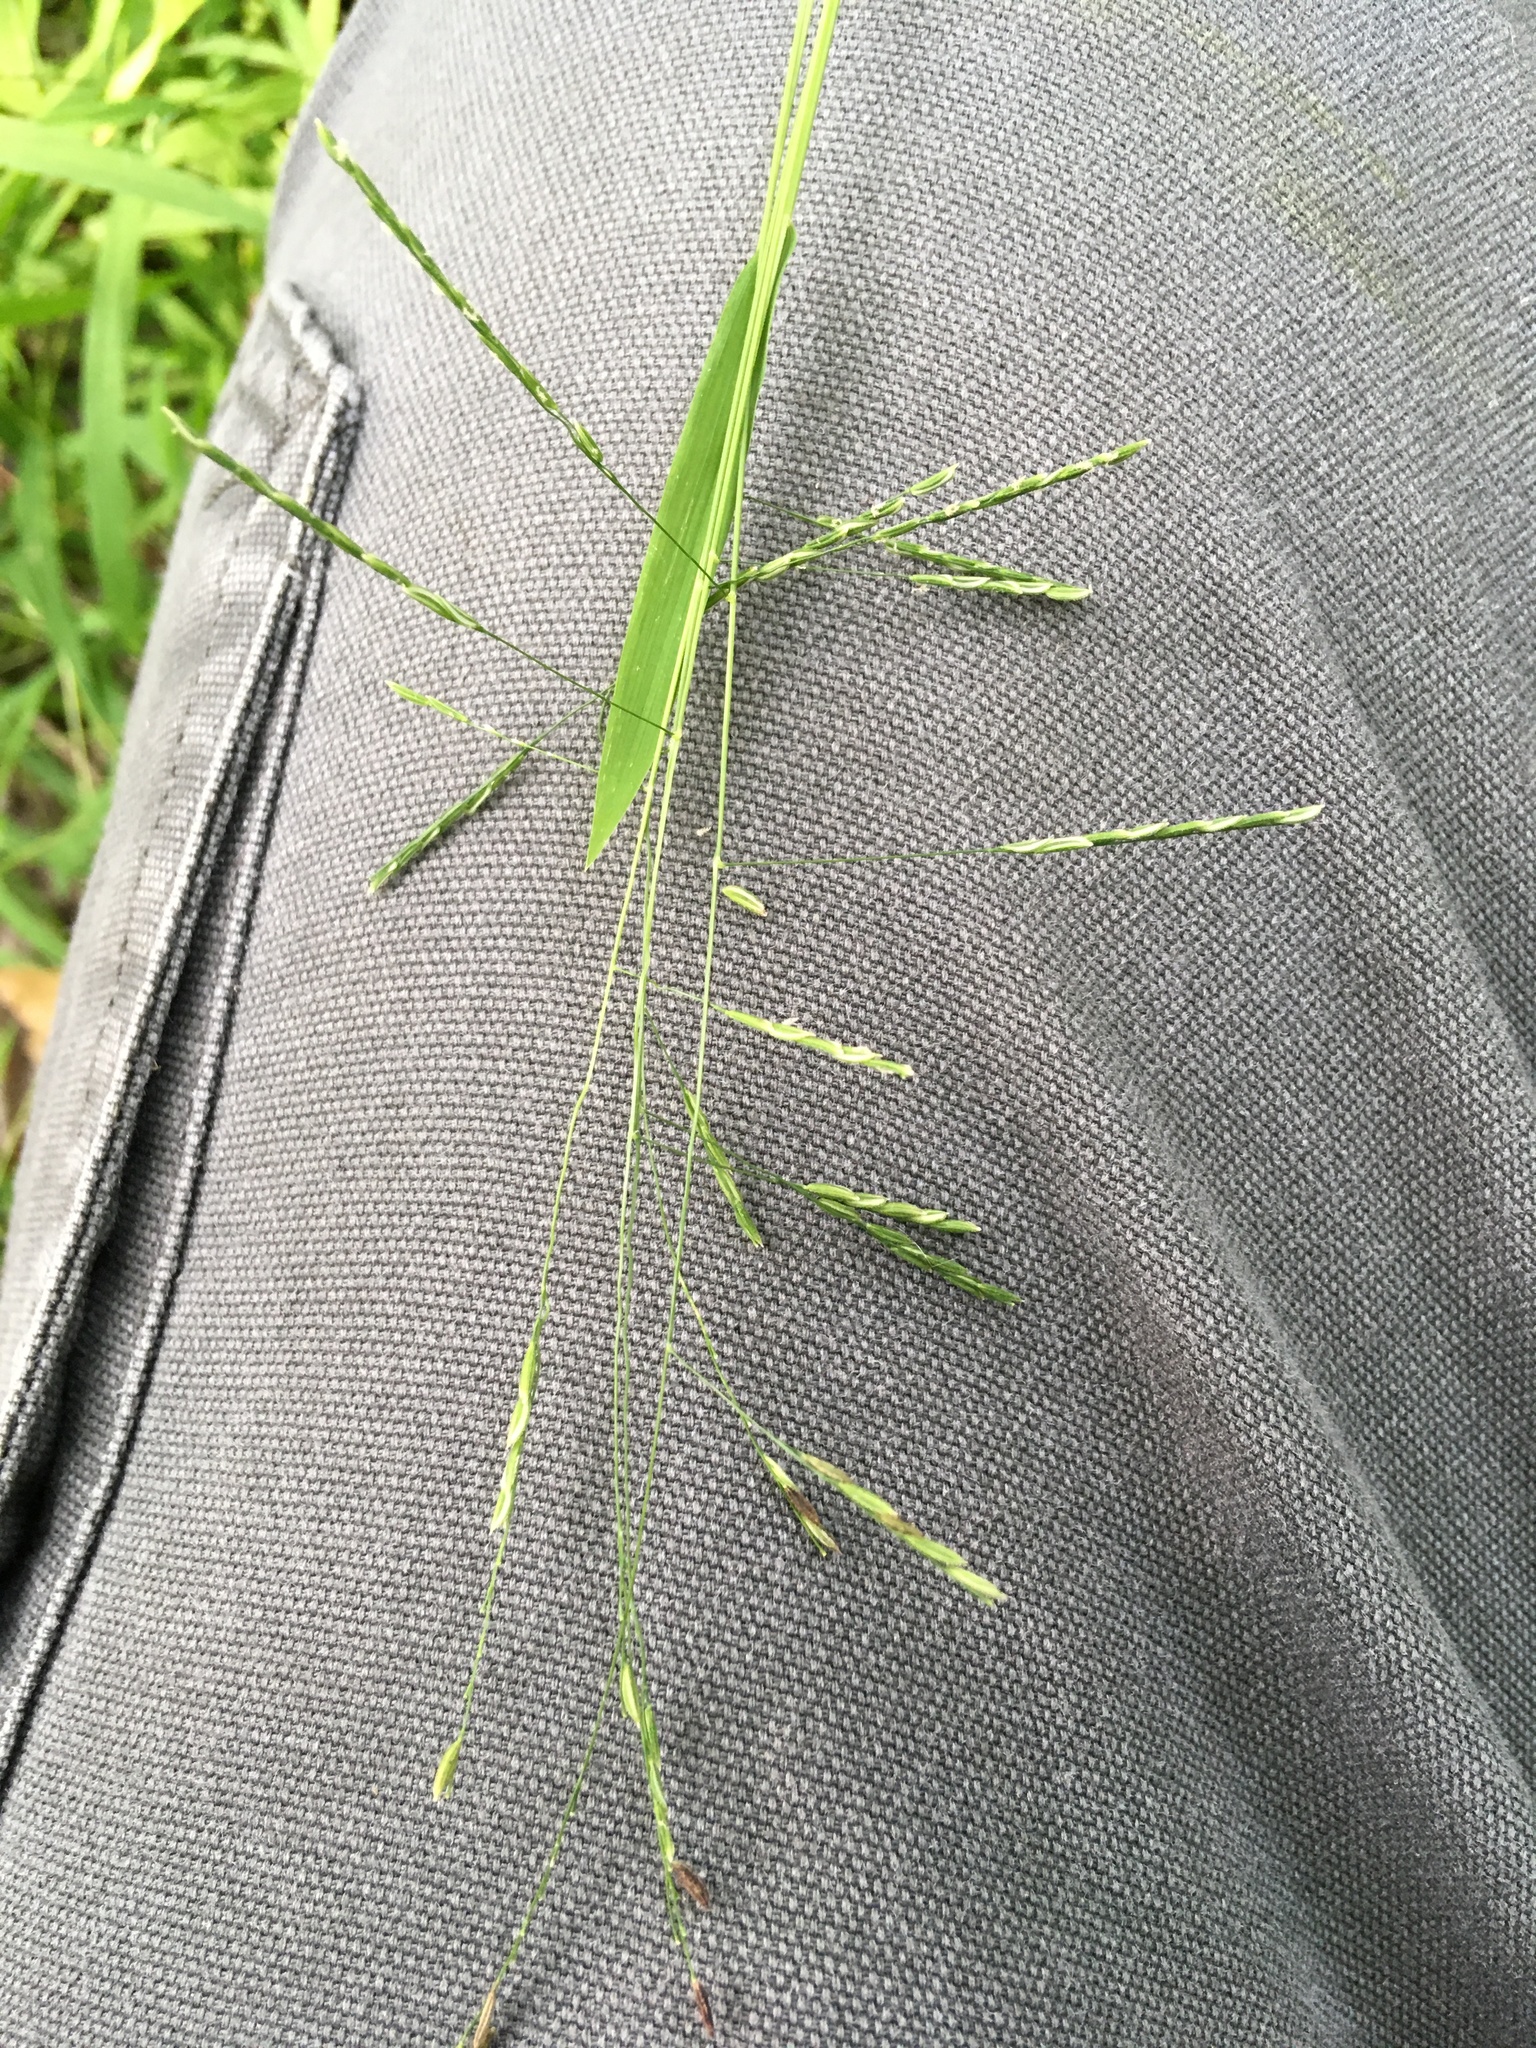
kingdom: Plantae
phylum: Tracheophyta
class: Liliopsida
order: Poales
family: Poaceae
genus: Leersia
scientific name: Leersia virginica
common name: White cutgrass
